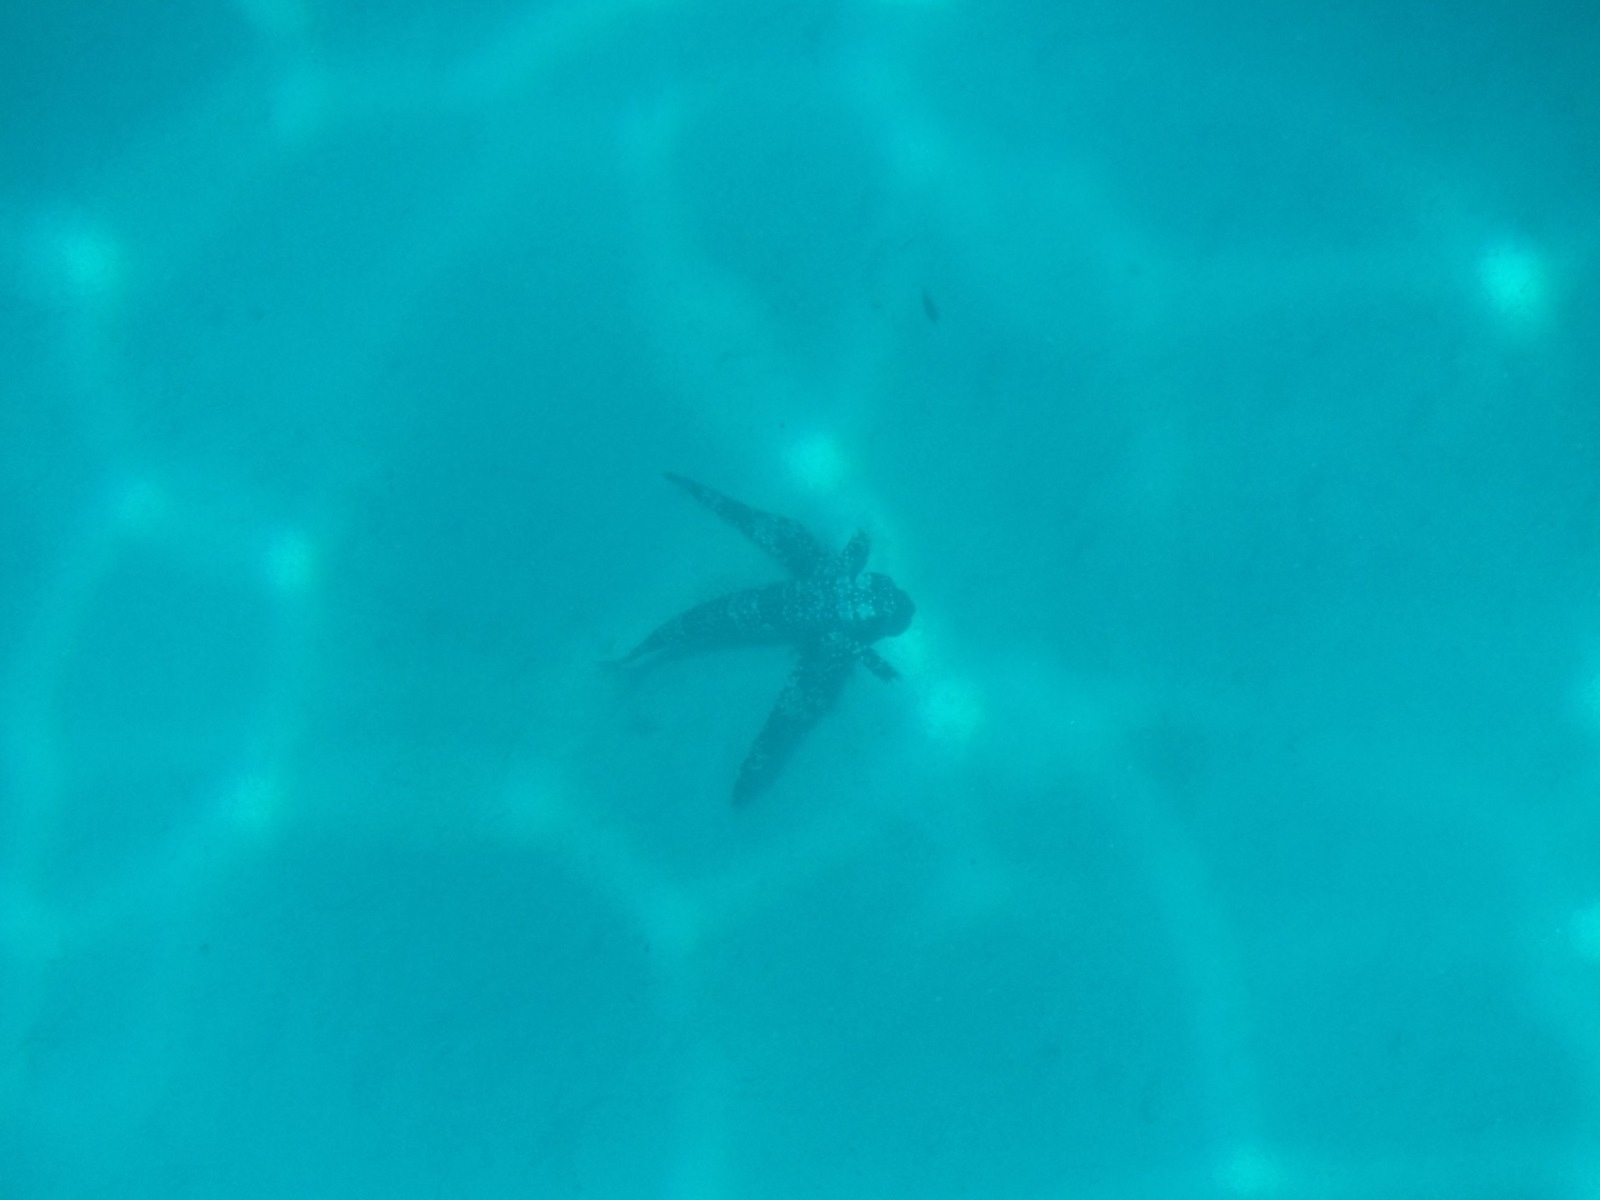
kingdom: Animalia
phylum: Chordata
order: Scorpaeniformes
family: Dactylopteridae
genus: Dactylopterus
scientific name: Dactylopterus volitans
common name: Flying gurnard
